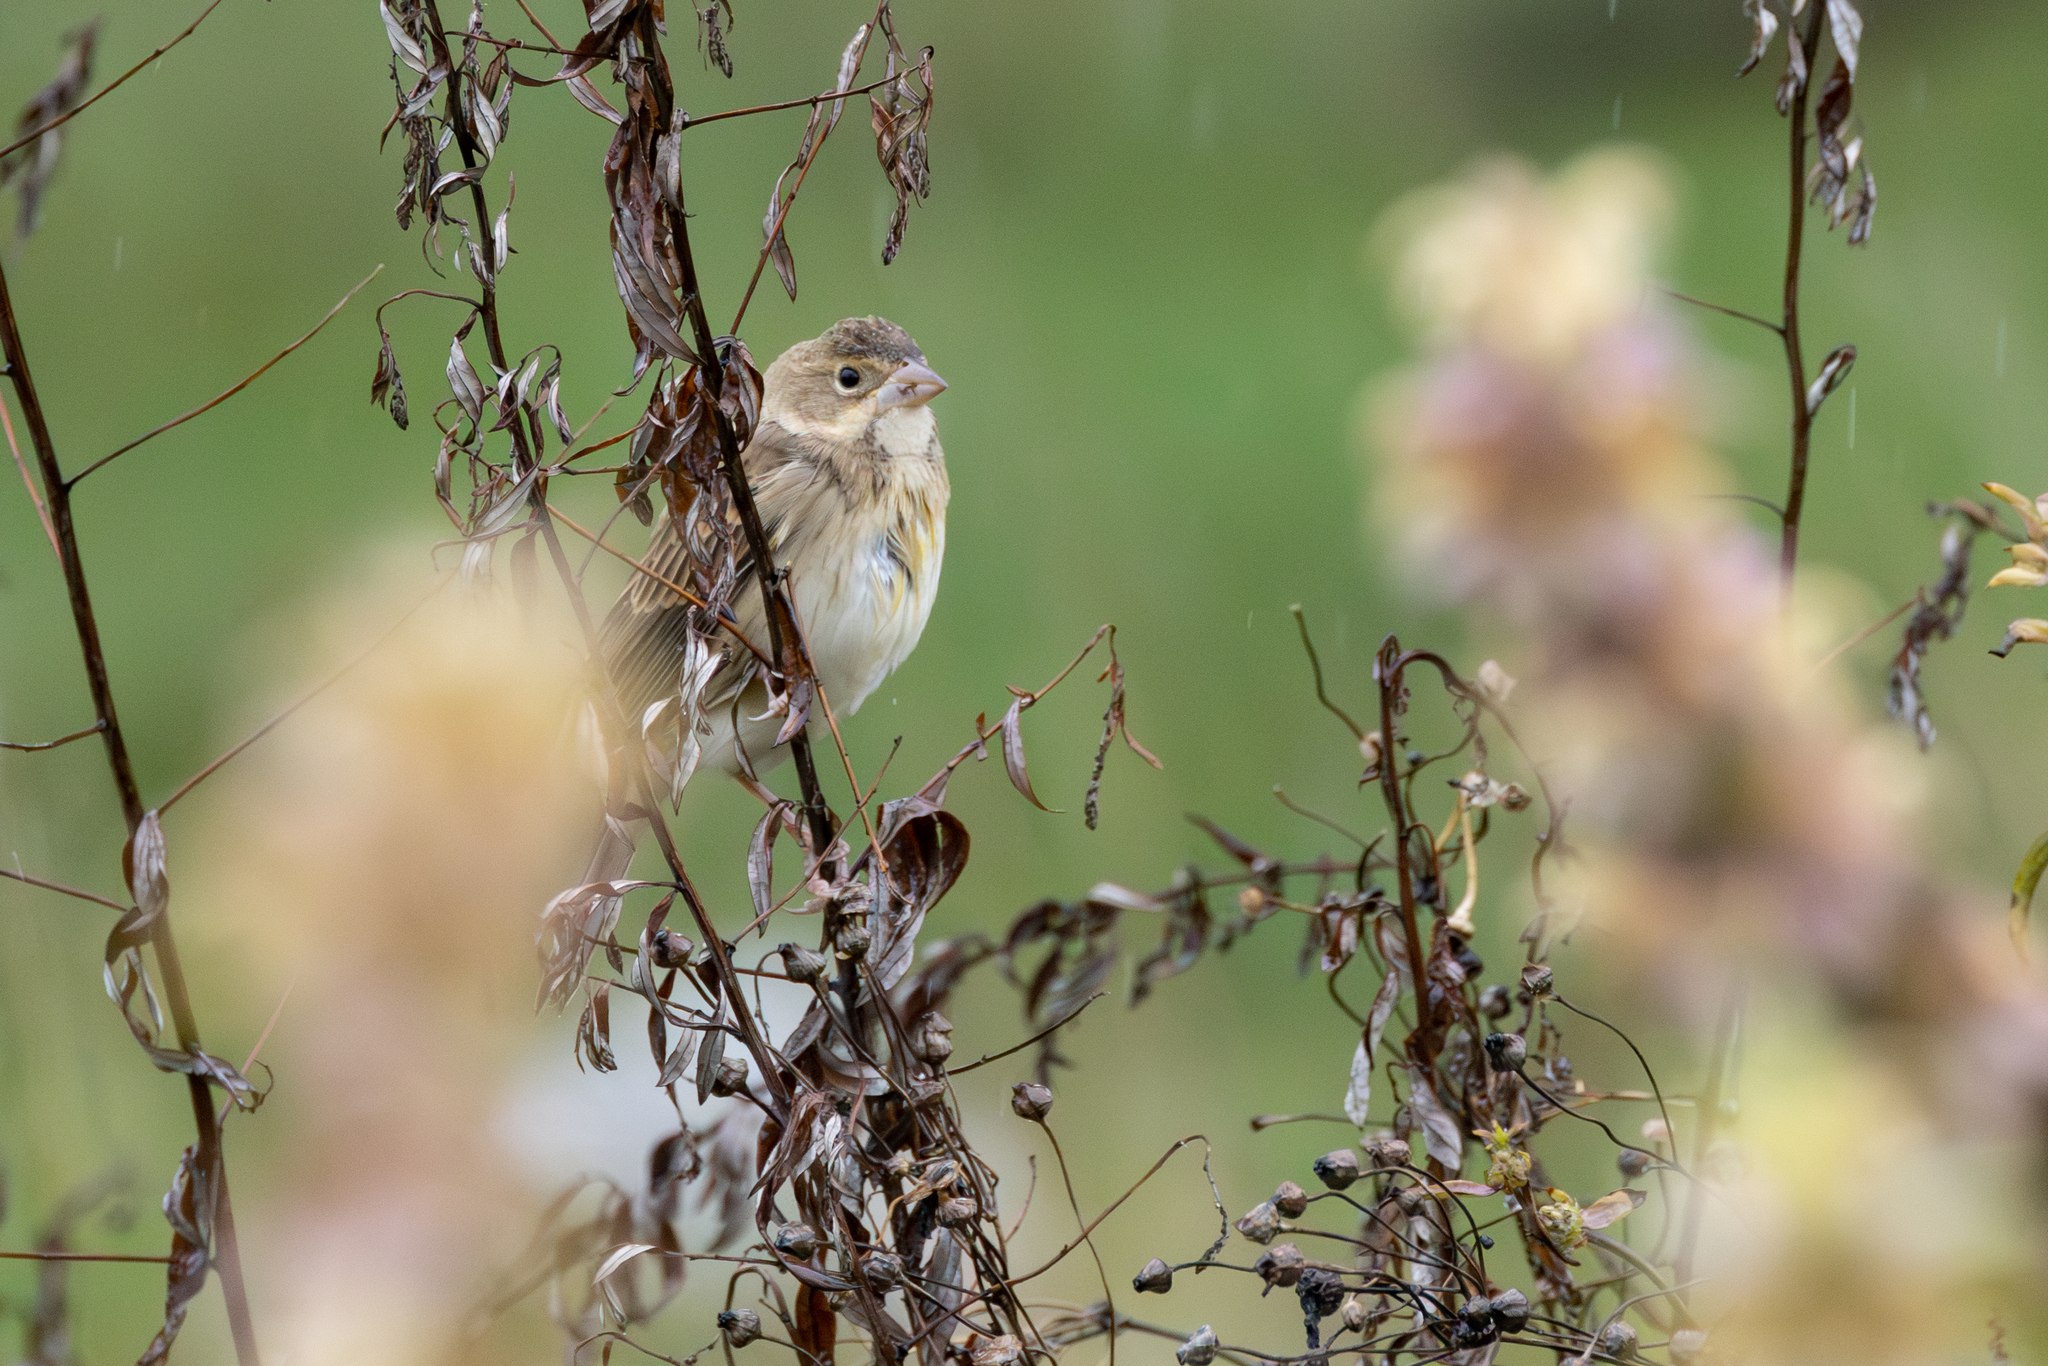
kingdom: Animalia
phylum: Chordata
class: Aves
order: Passeriformes
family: Cardinalidae
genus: Spiza
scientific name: Spiza americana
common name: Dickcissel
